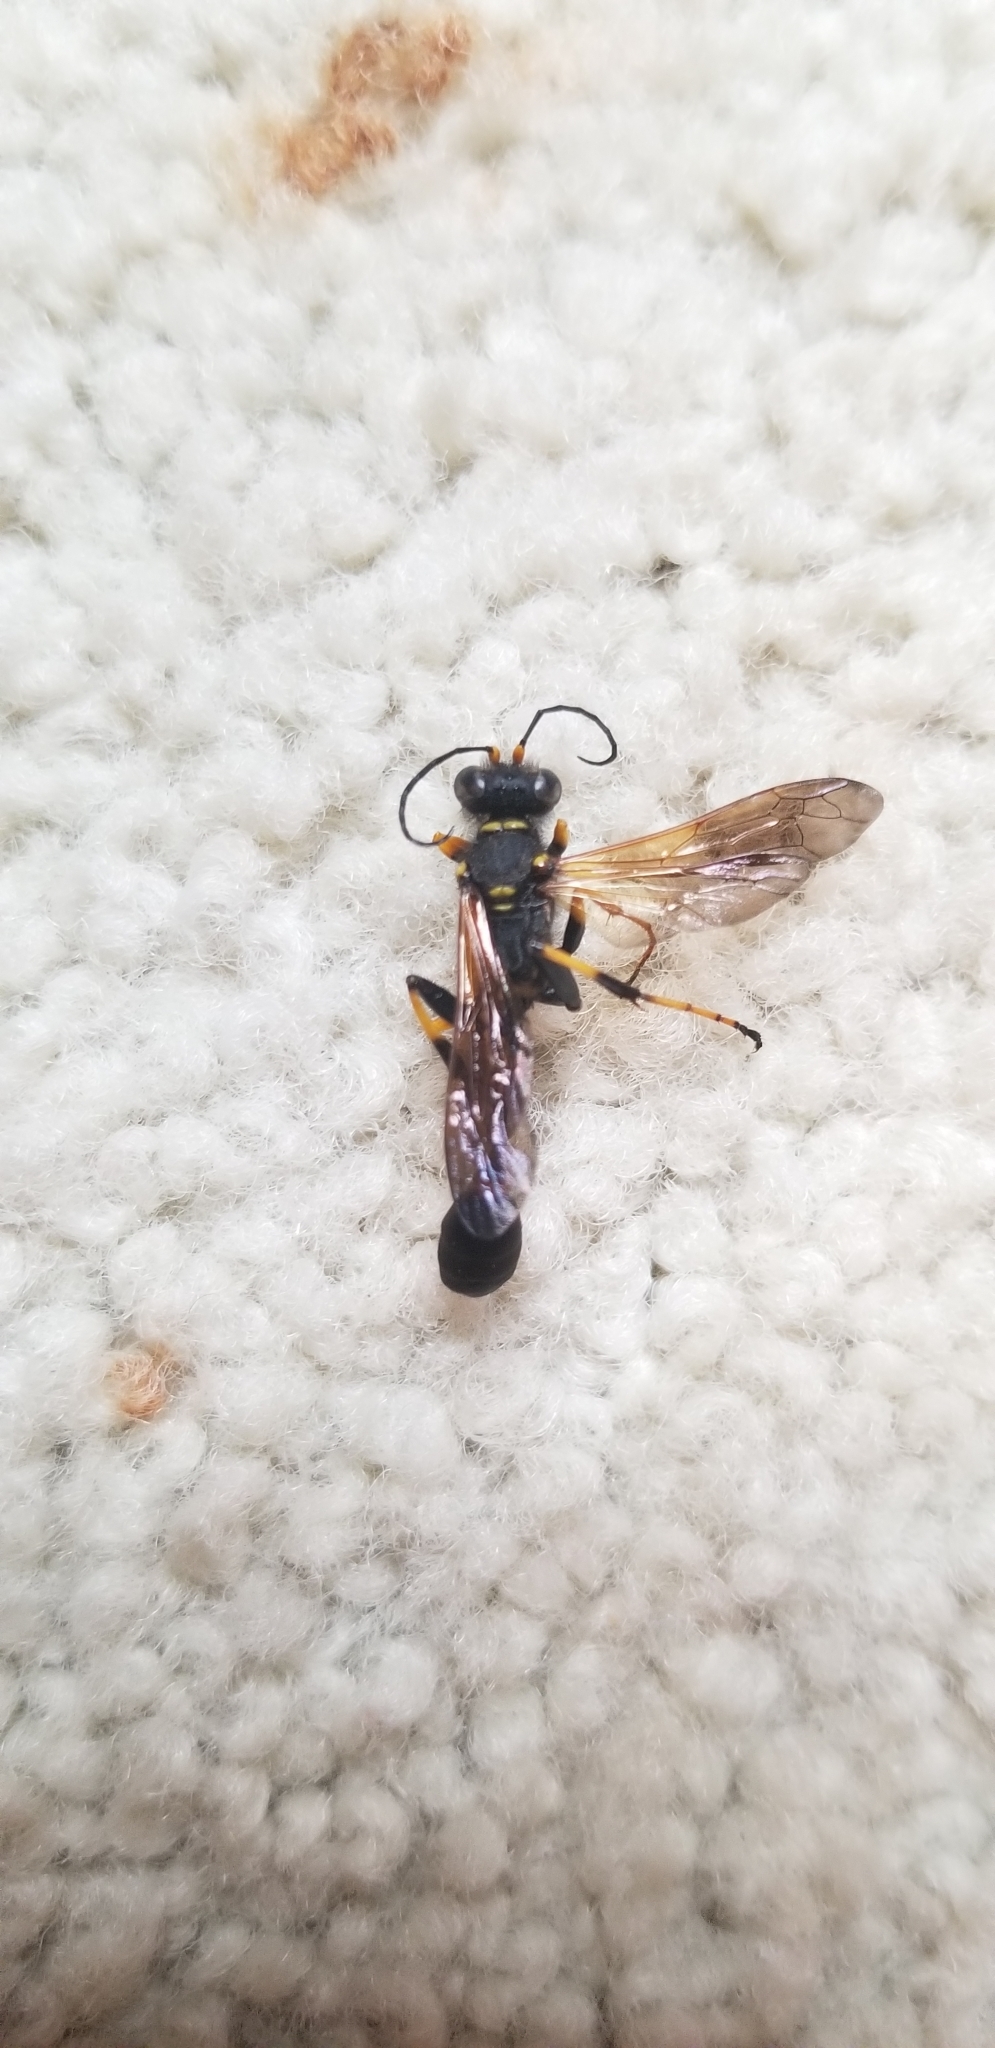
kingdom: Animalia
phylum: Arthropoda
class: Insecta
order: Hymenoptera
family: Sphecidae
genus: Sceliphron
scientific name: Sceliphron caementarium
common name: Mud dauber
